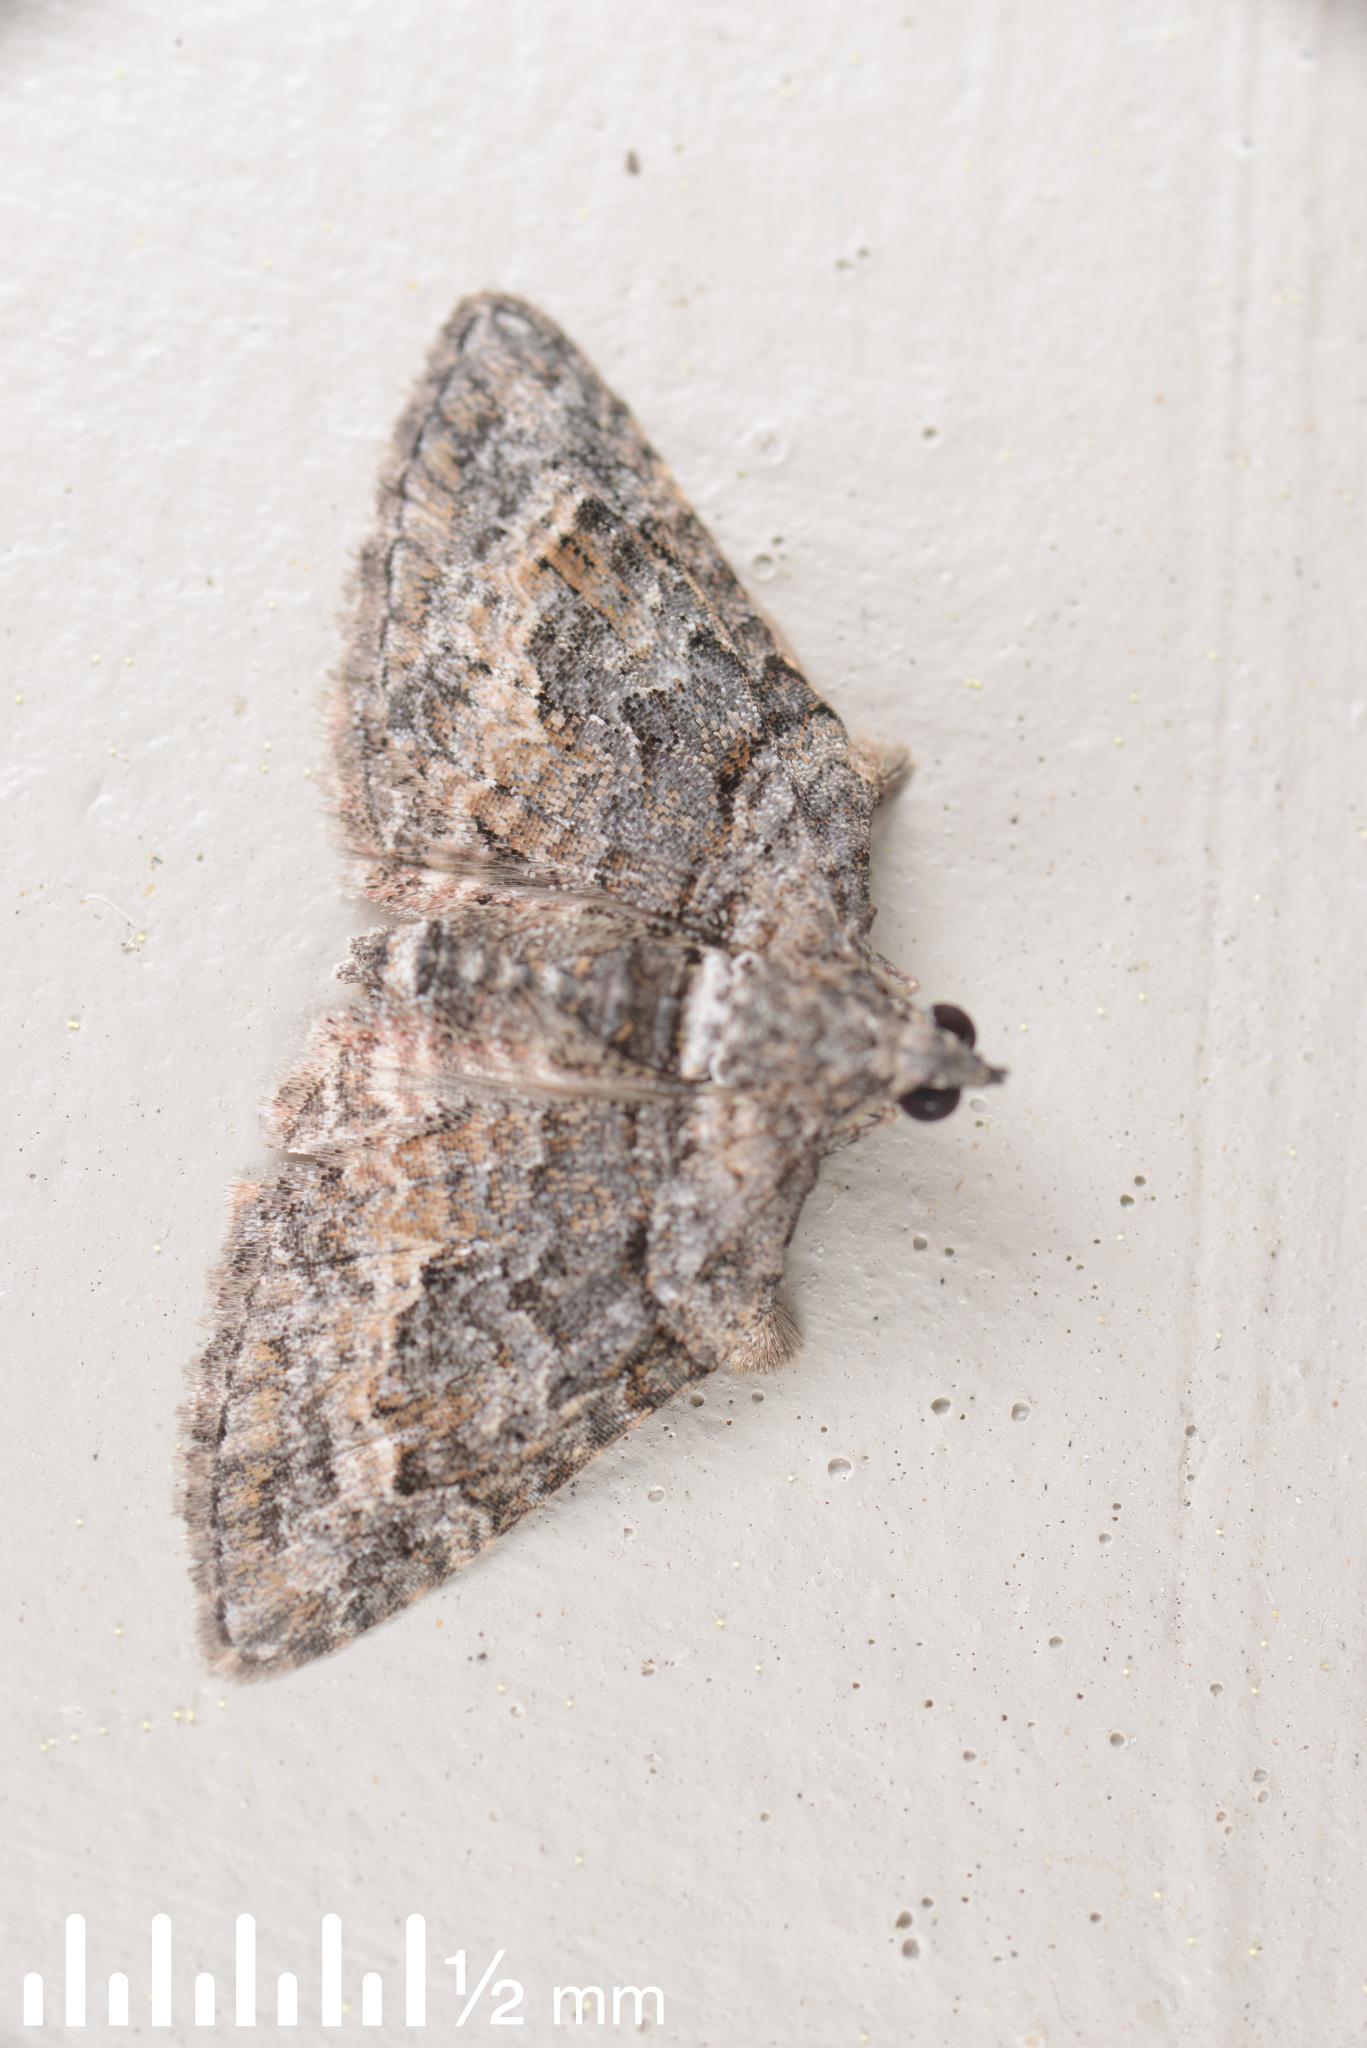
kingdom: Animalia
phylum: Arthropoda
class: Insecta
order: Lepidoptera
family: Geometridae
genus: Phrissogonus
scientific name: Phrissogonus laticostata
